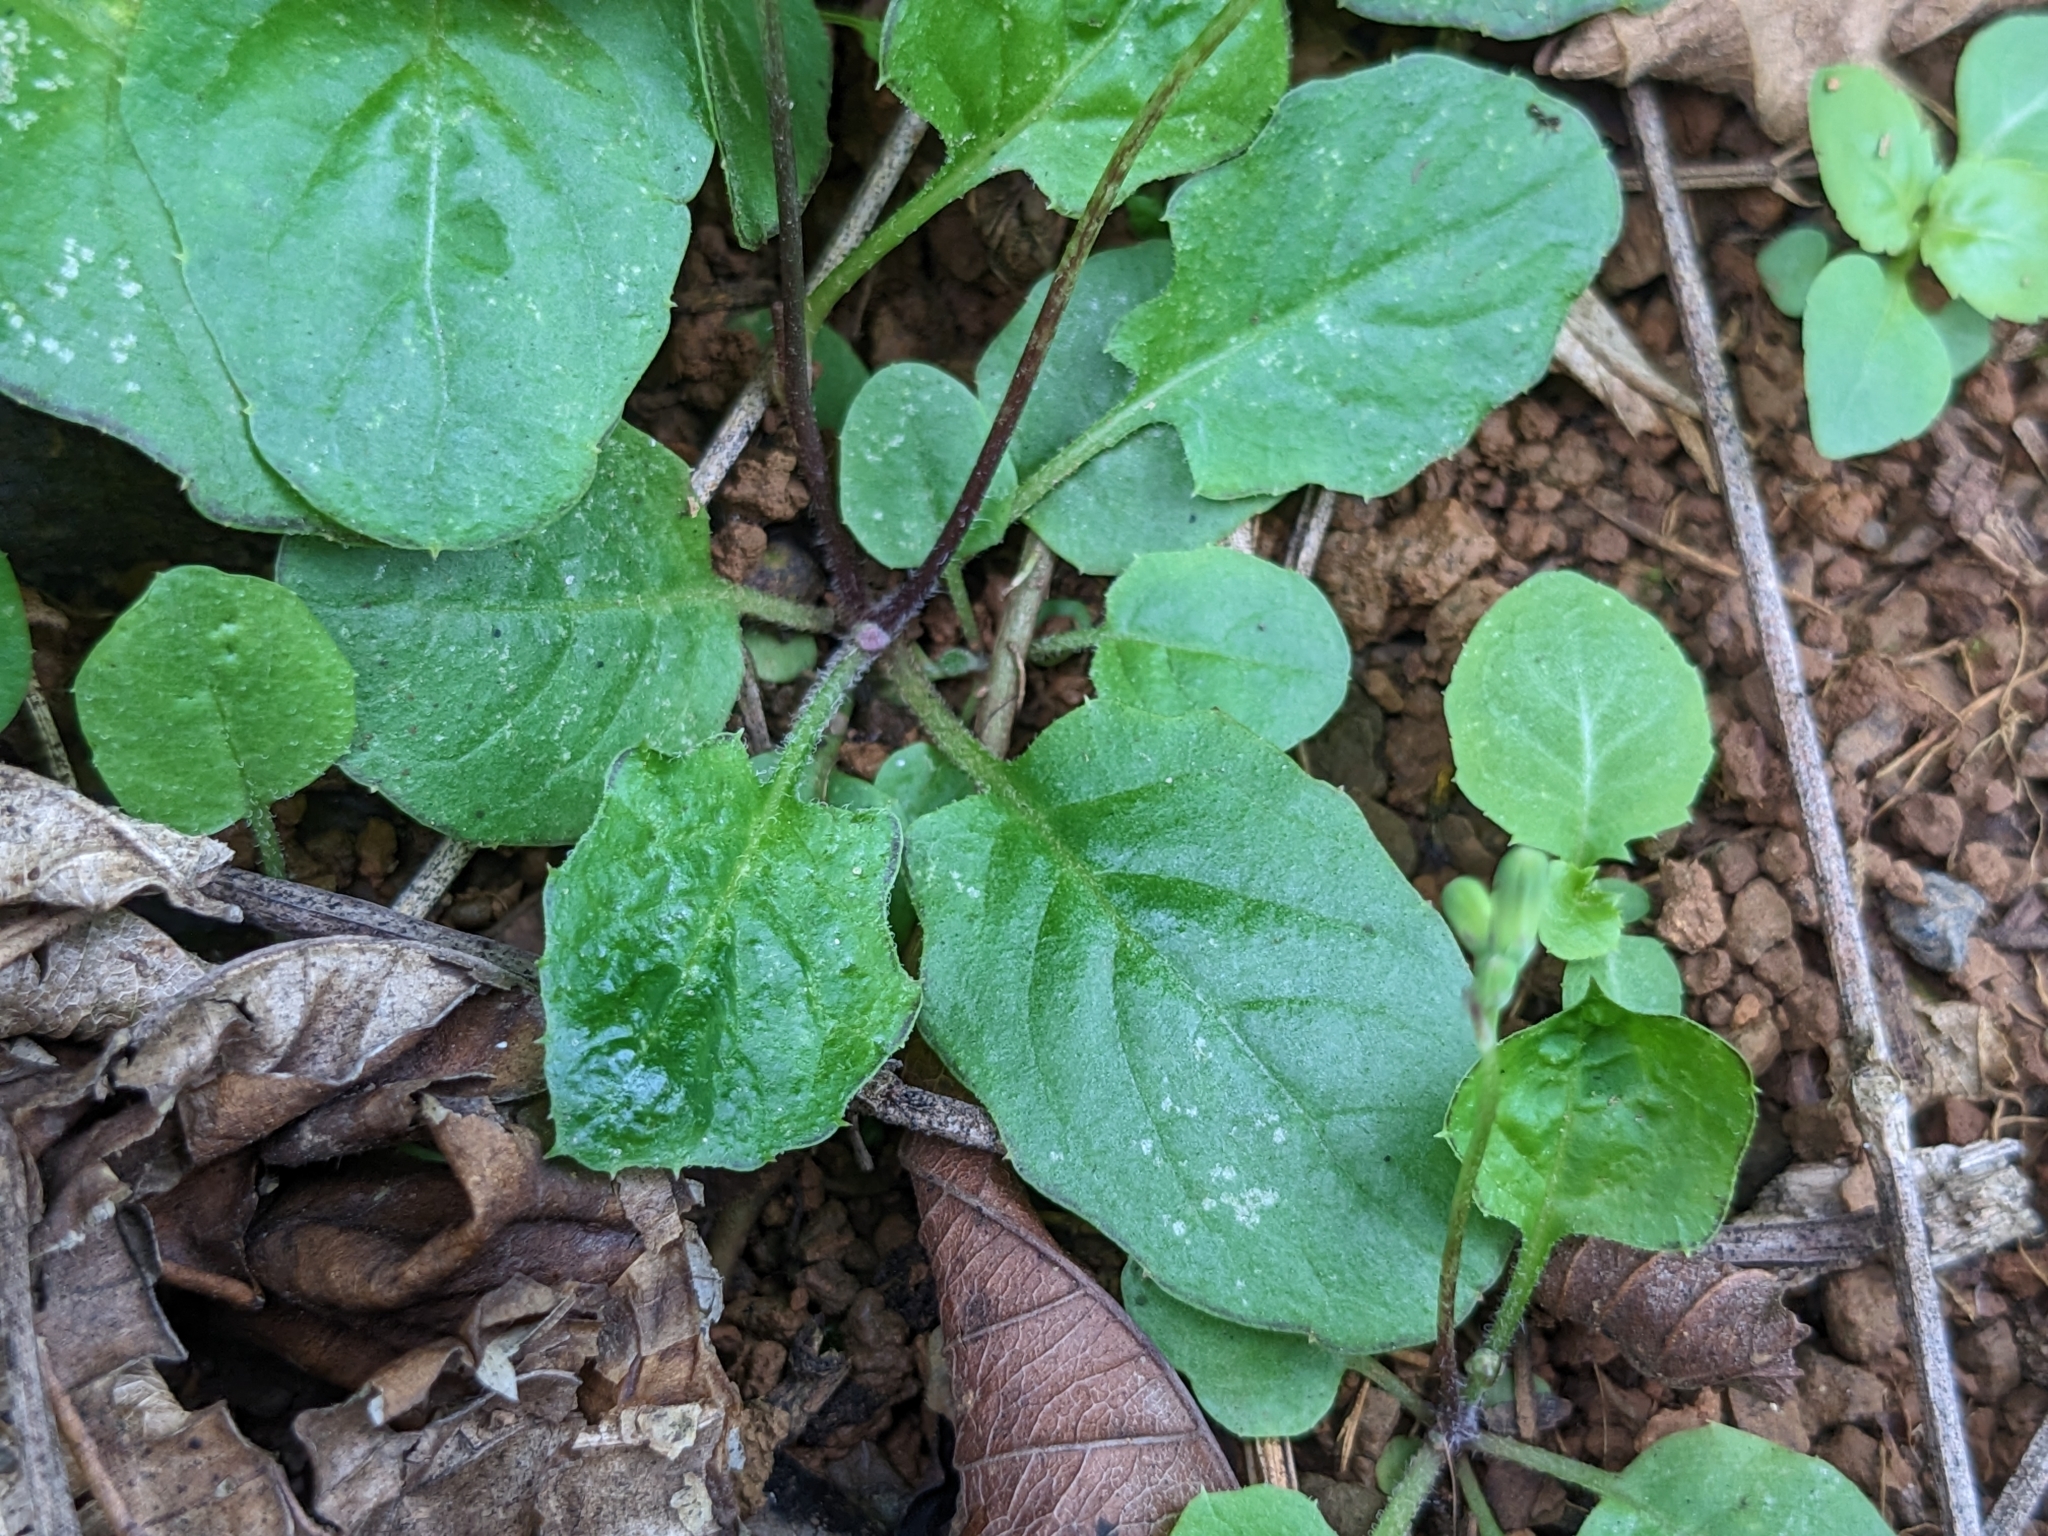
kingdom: Plantae
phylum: Tracheophyta
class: Magnoliopsida
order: Asterales
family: Asteraceae
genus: Youngia
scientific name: Youngia japonica
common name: Oriental false hawksbeard
